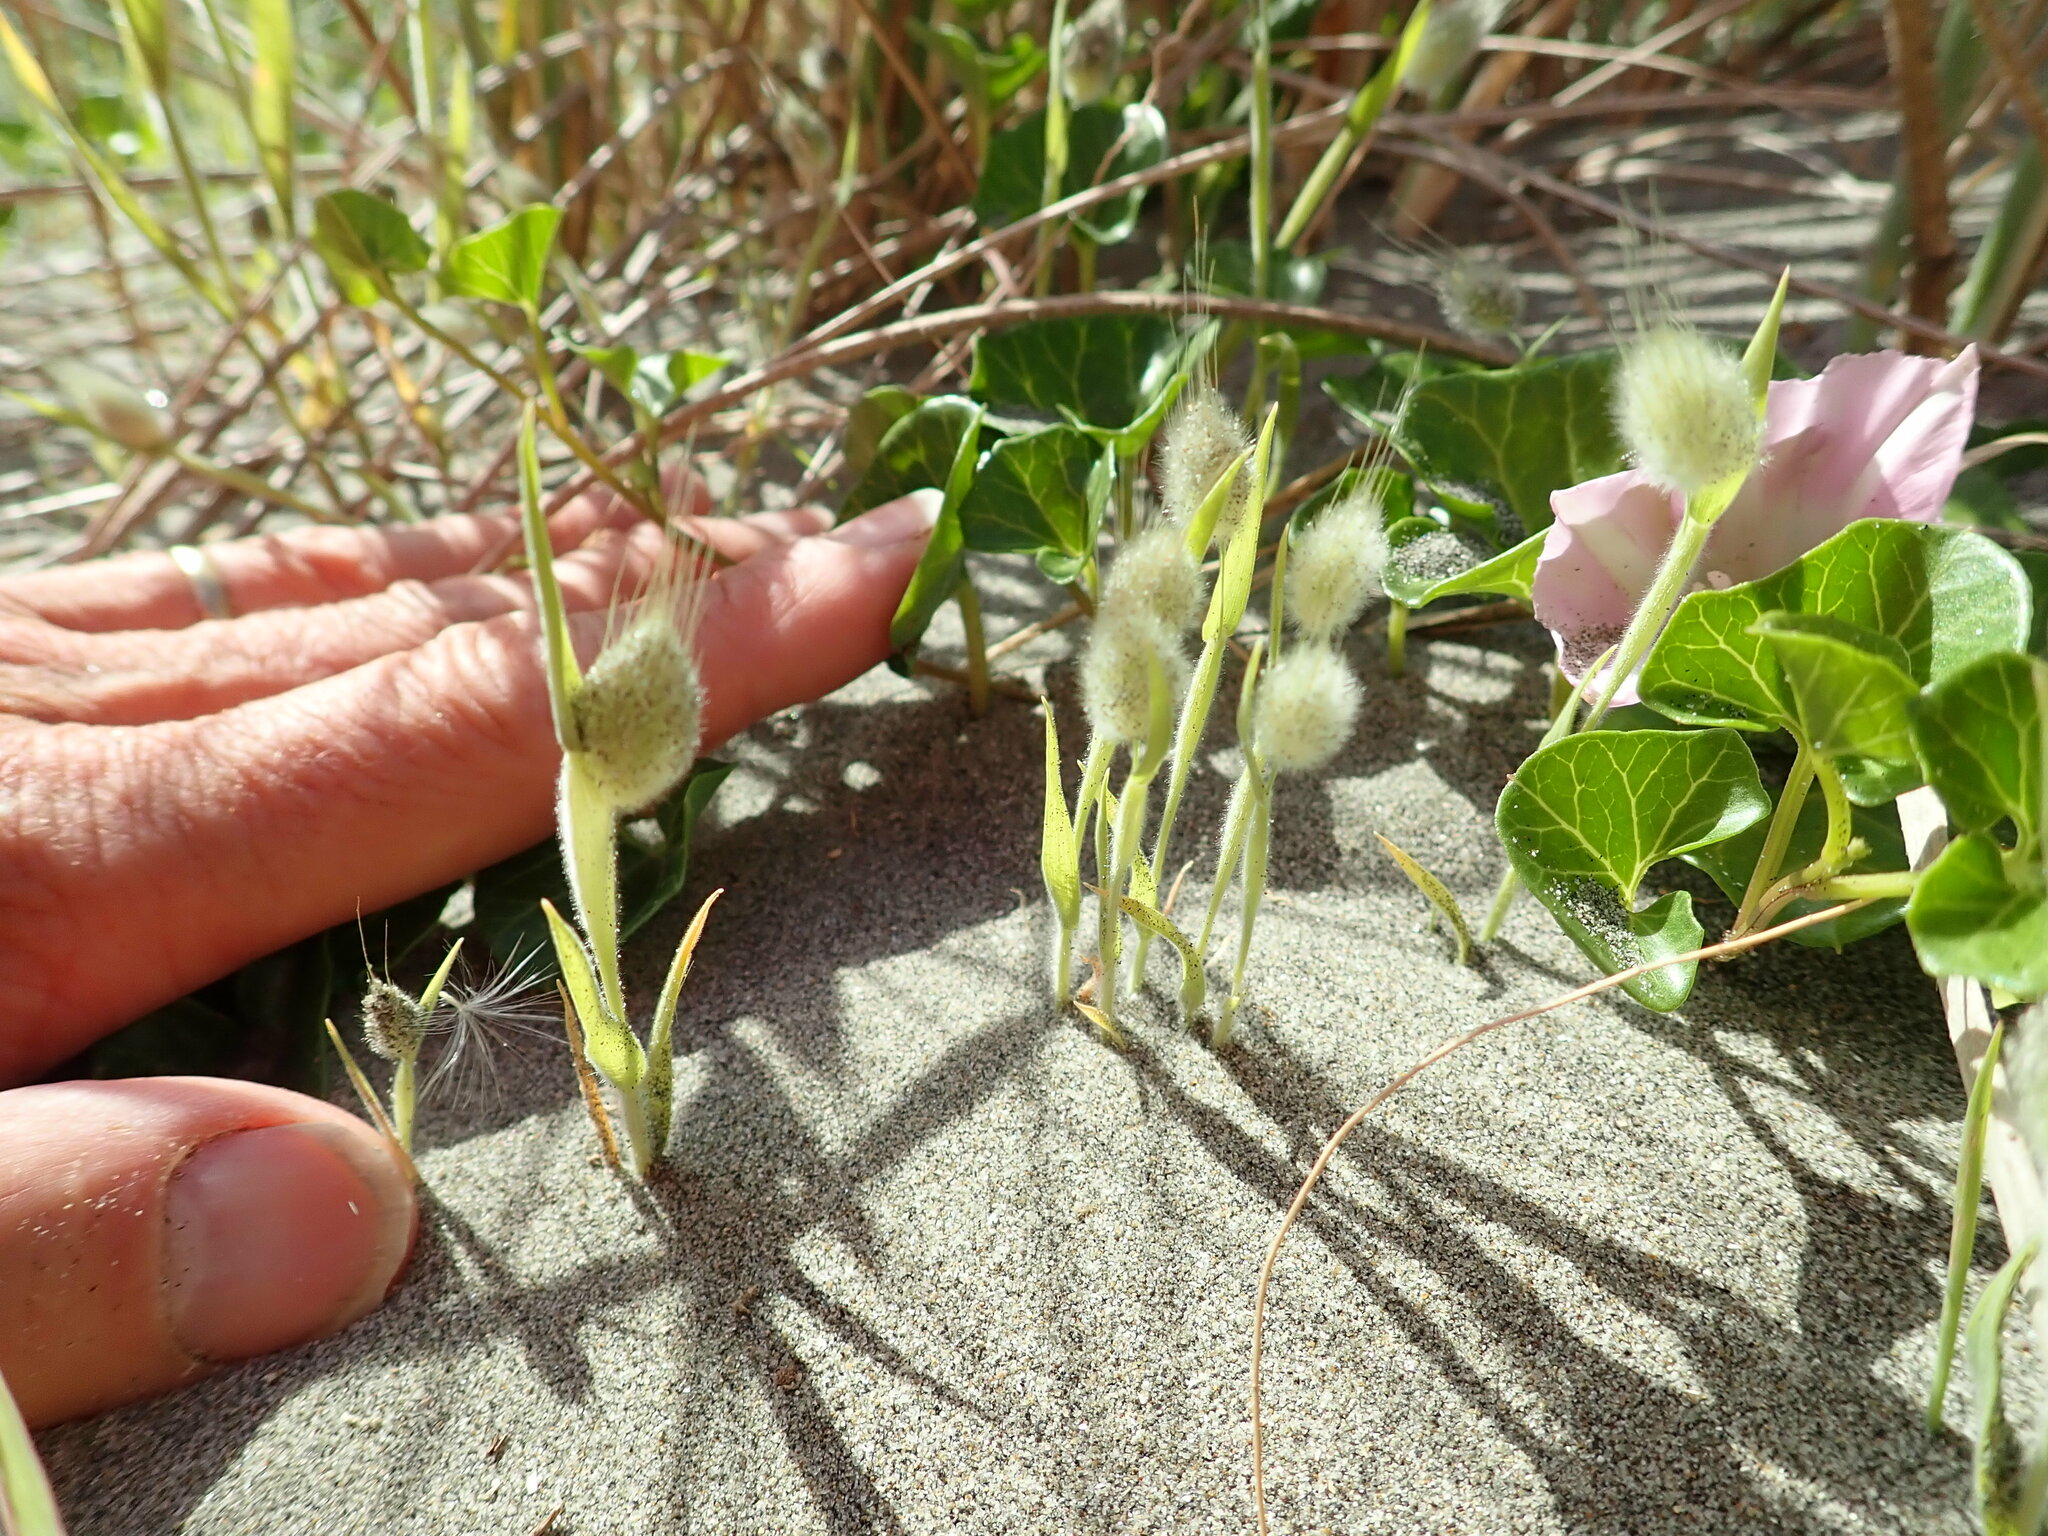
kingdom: Plantae
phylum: Tracheophyta
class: Liliopsida
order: Poales
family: Poaceae
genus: Lagurus
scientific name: Lagurus ovatus
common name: Hare's-tail
